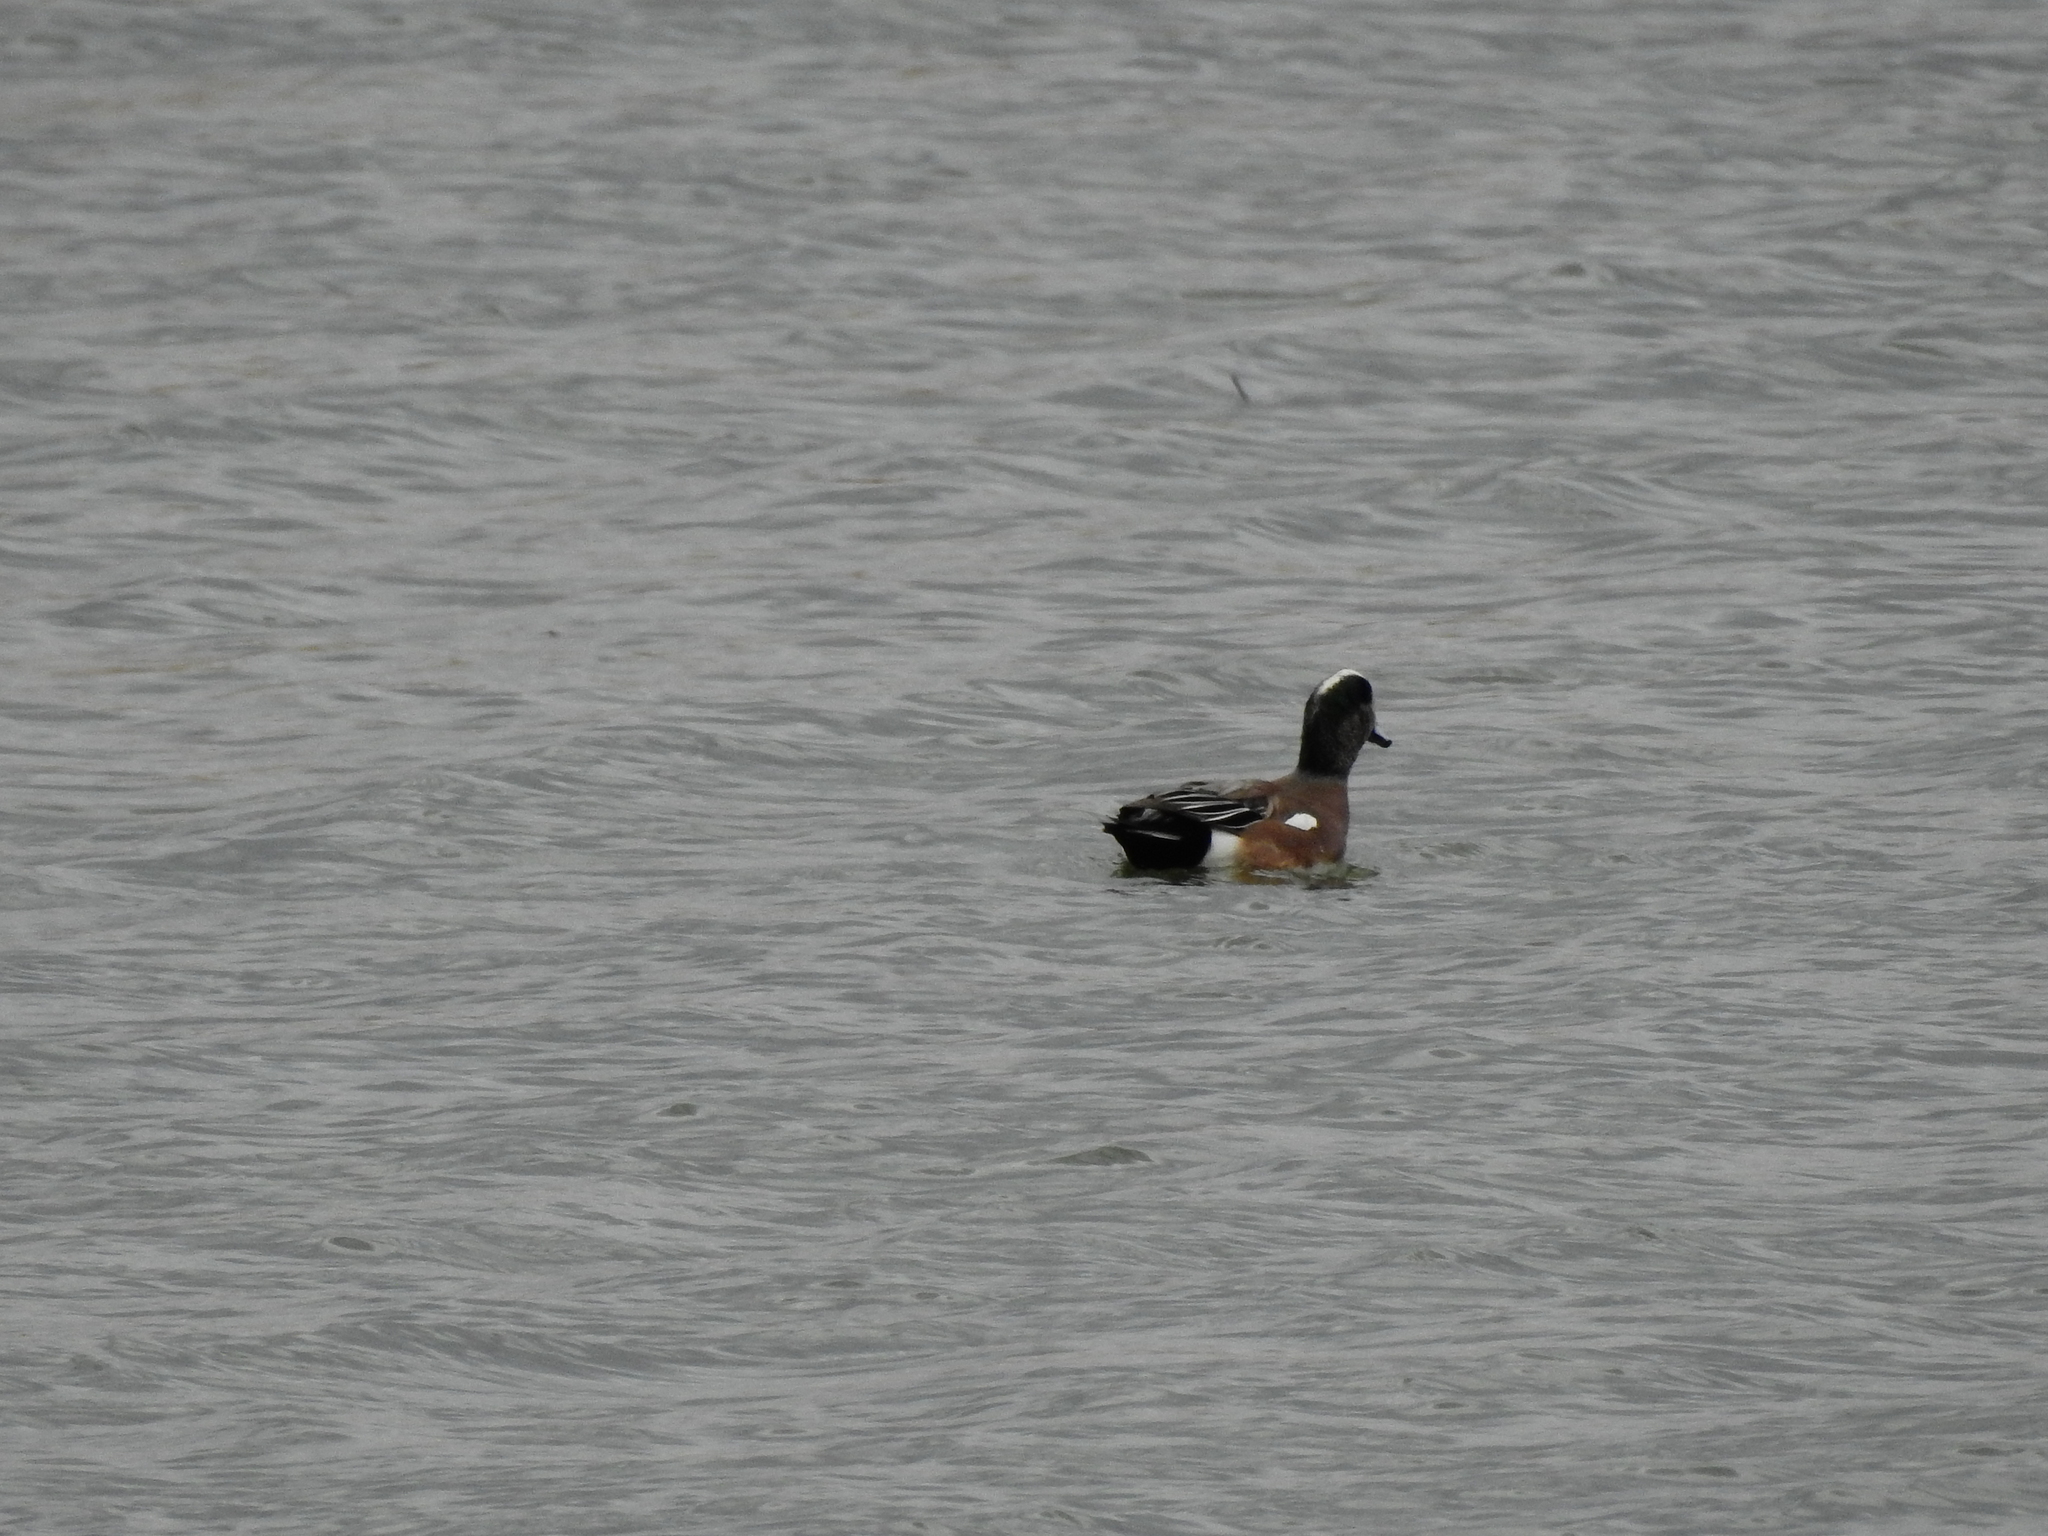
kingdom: Animalia
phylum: Chordata
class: Aves
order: Anseriformes
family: Anatidae
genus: Mareca
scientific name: Mareca americana
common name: American wigeon
